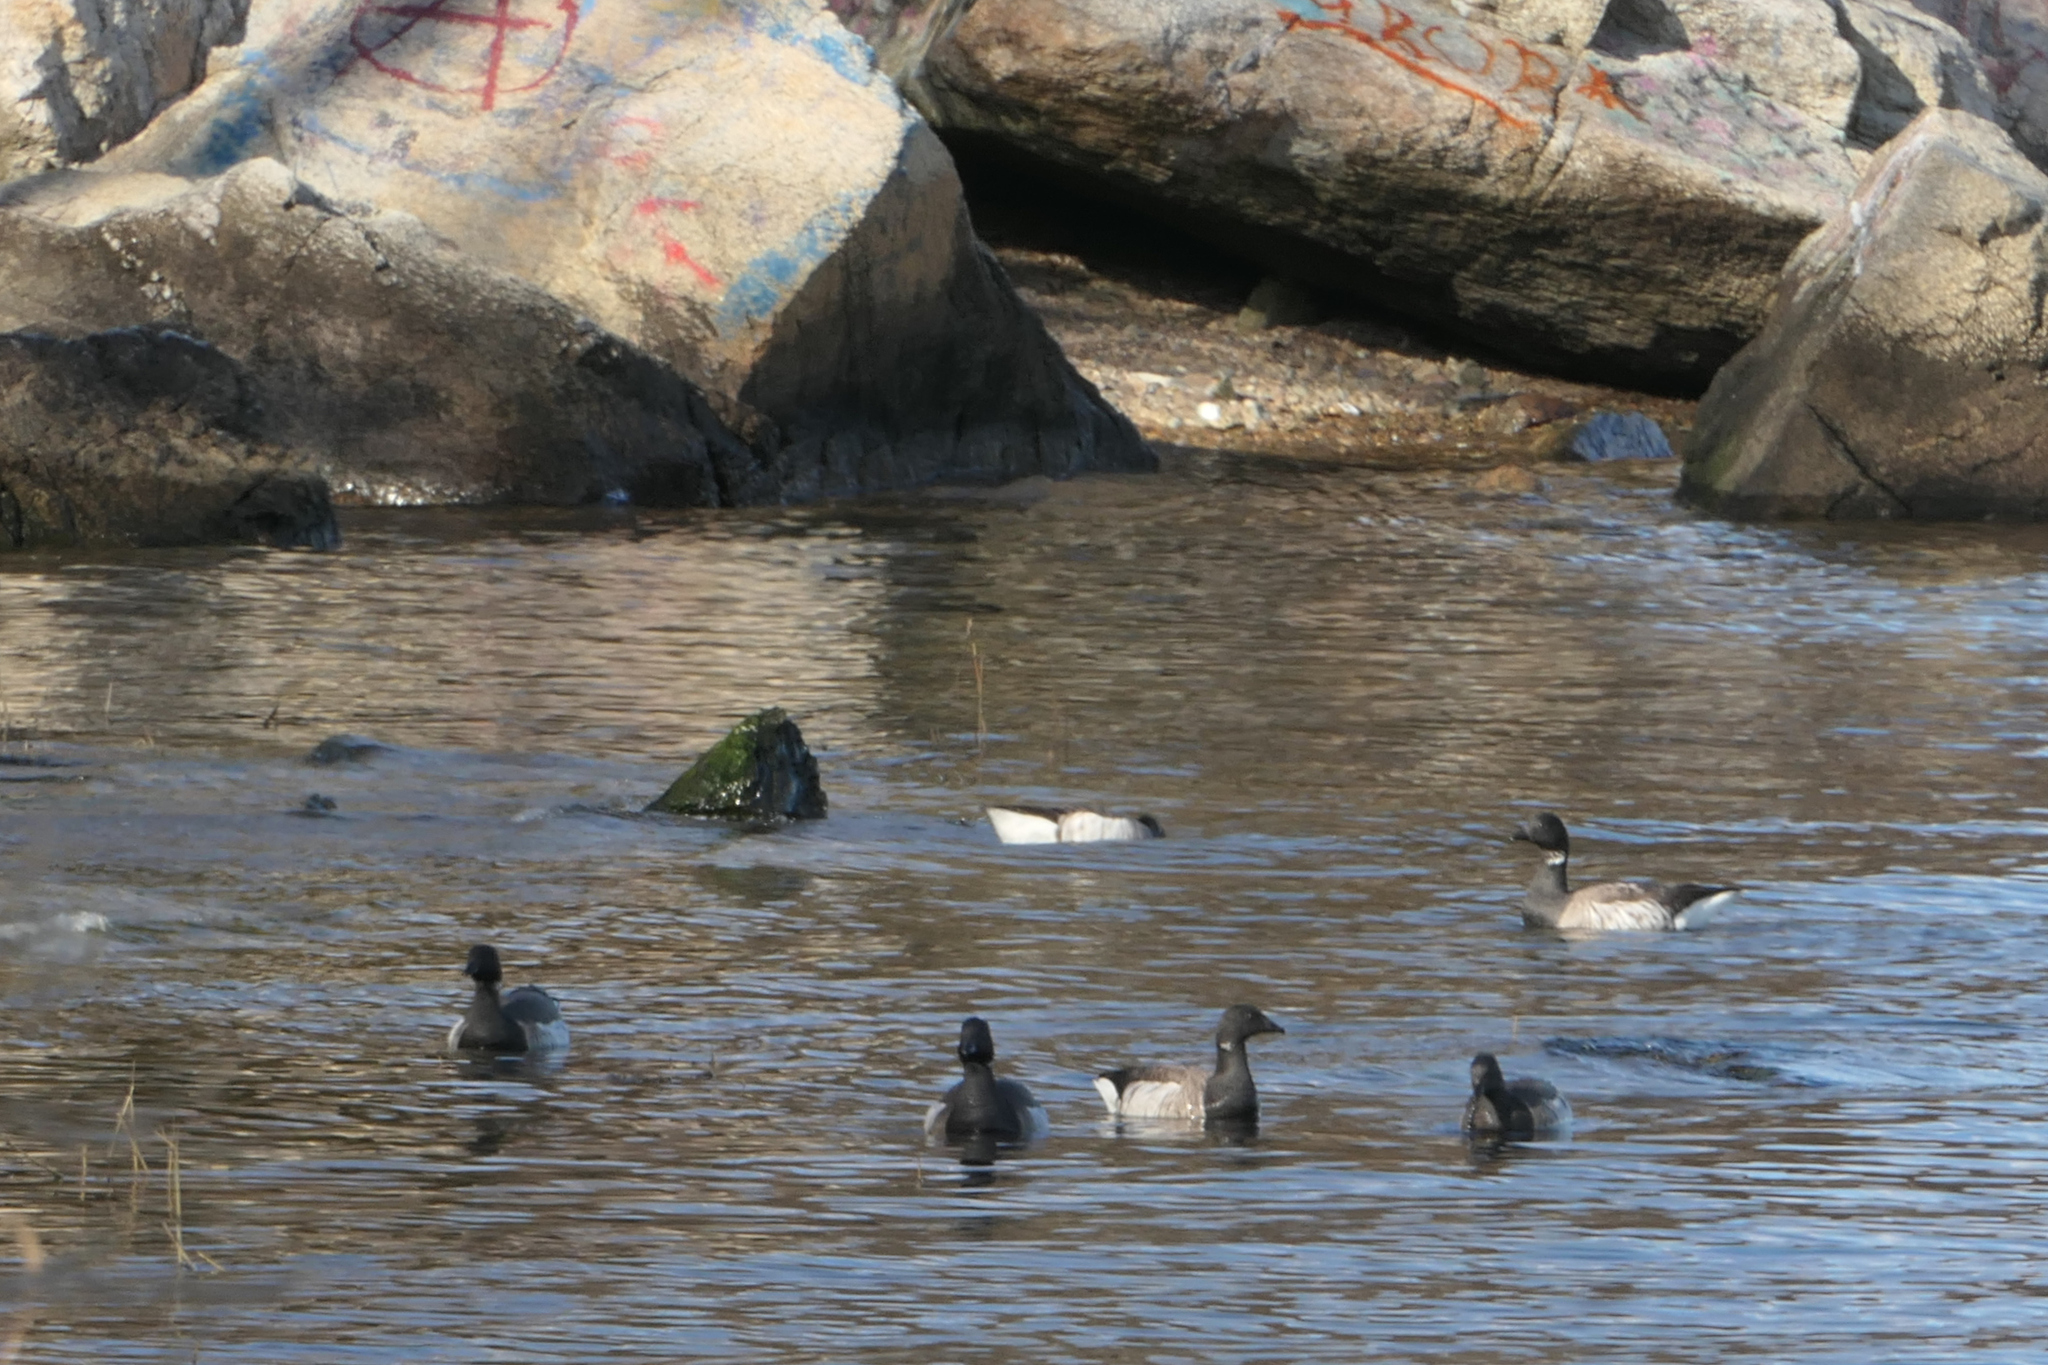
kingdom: Animalia
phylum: Chordata
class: Aves
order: Anseriformes
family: Anatidae
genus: Branta
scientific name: Branta bernicla
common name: Brant goose
